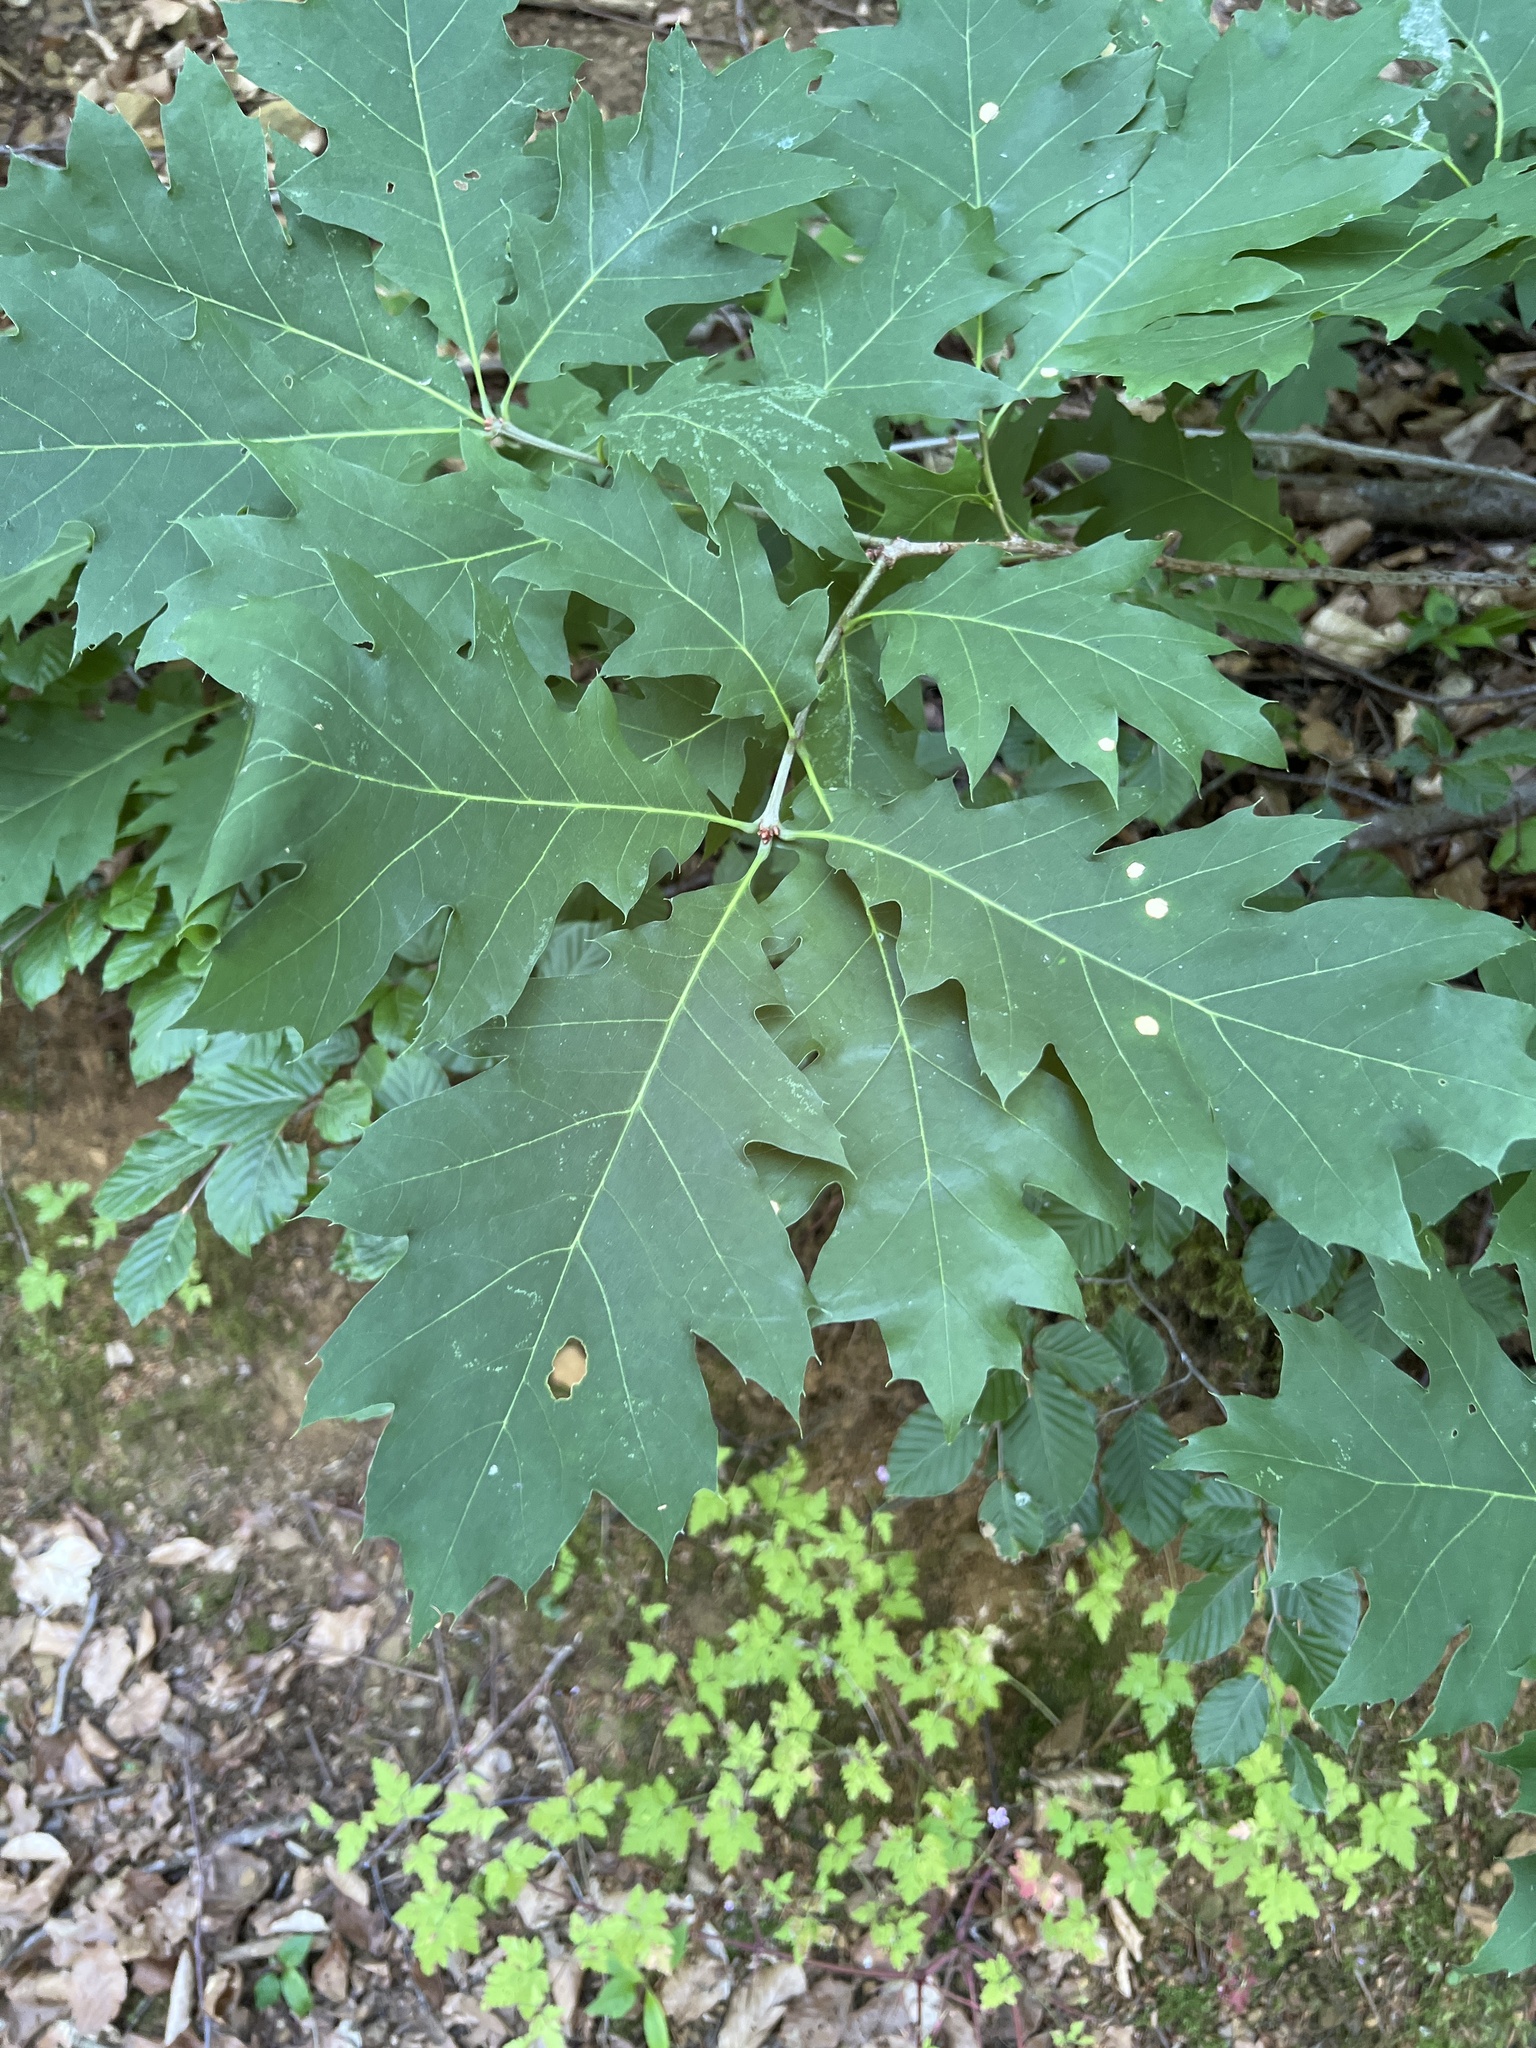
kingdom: Plantae
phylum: Tracheophyta
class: Magnoliopsida
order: Fagales
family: Fagaceae
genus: Quercus
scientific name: Quercus rubra
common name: Red oak
